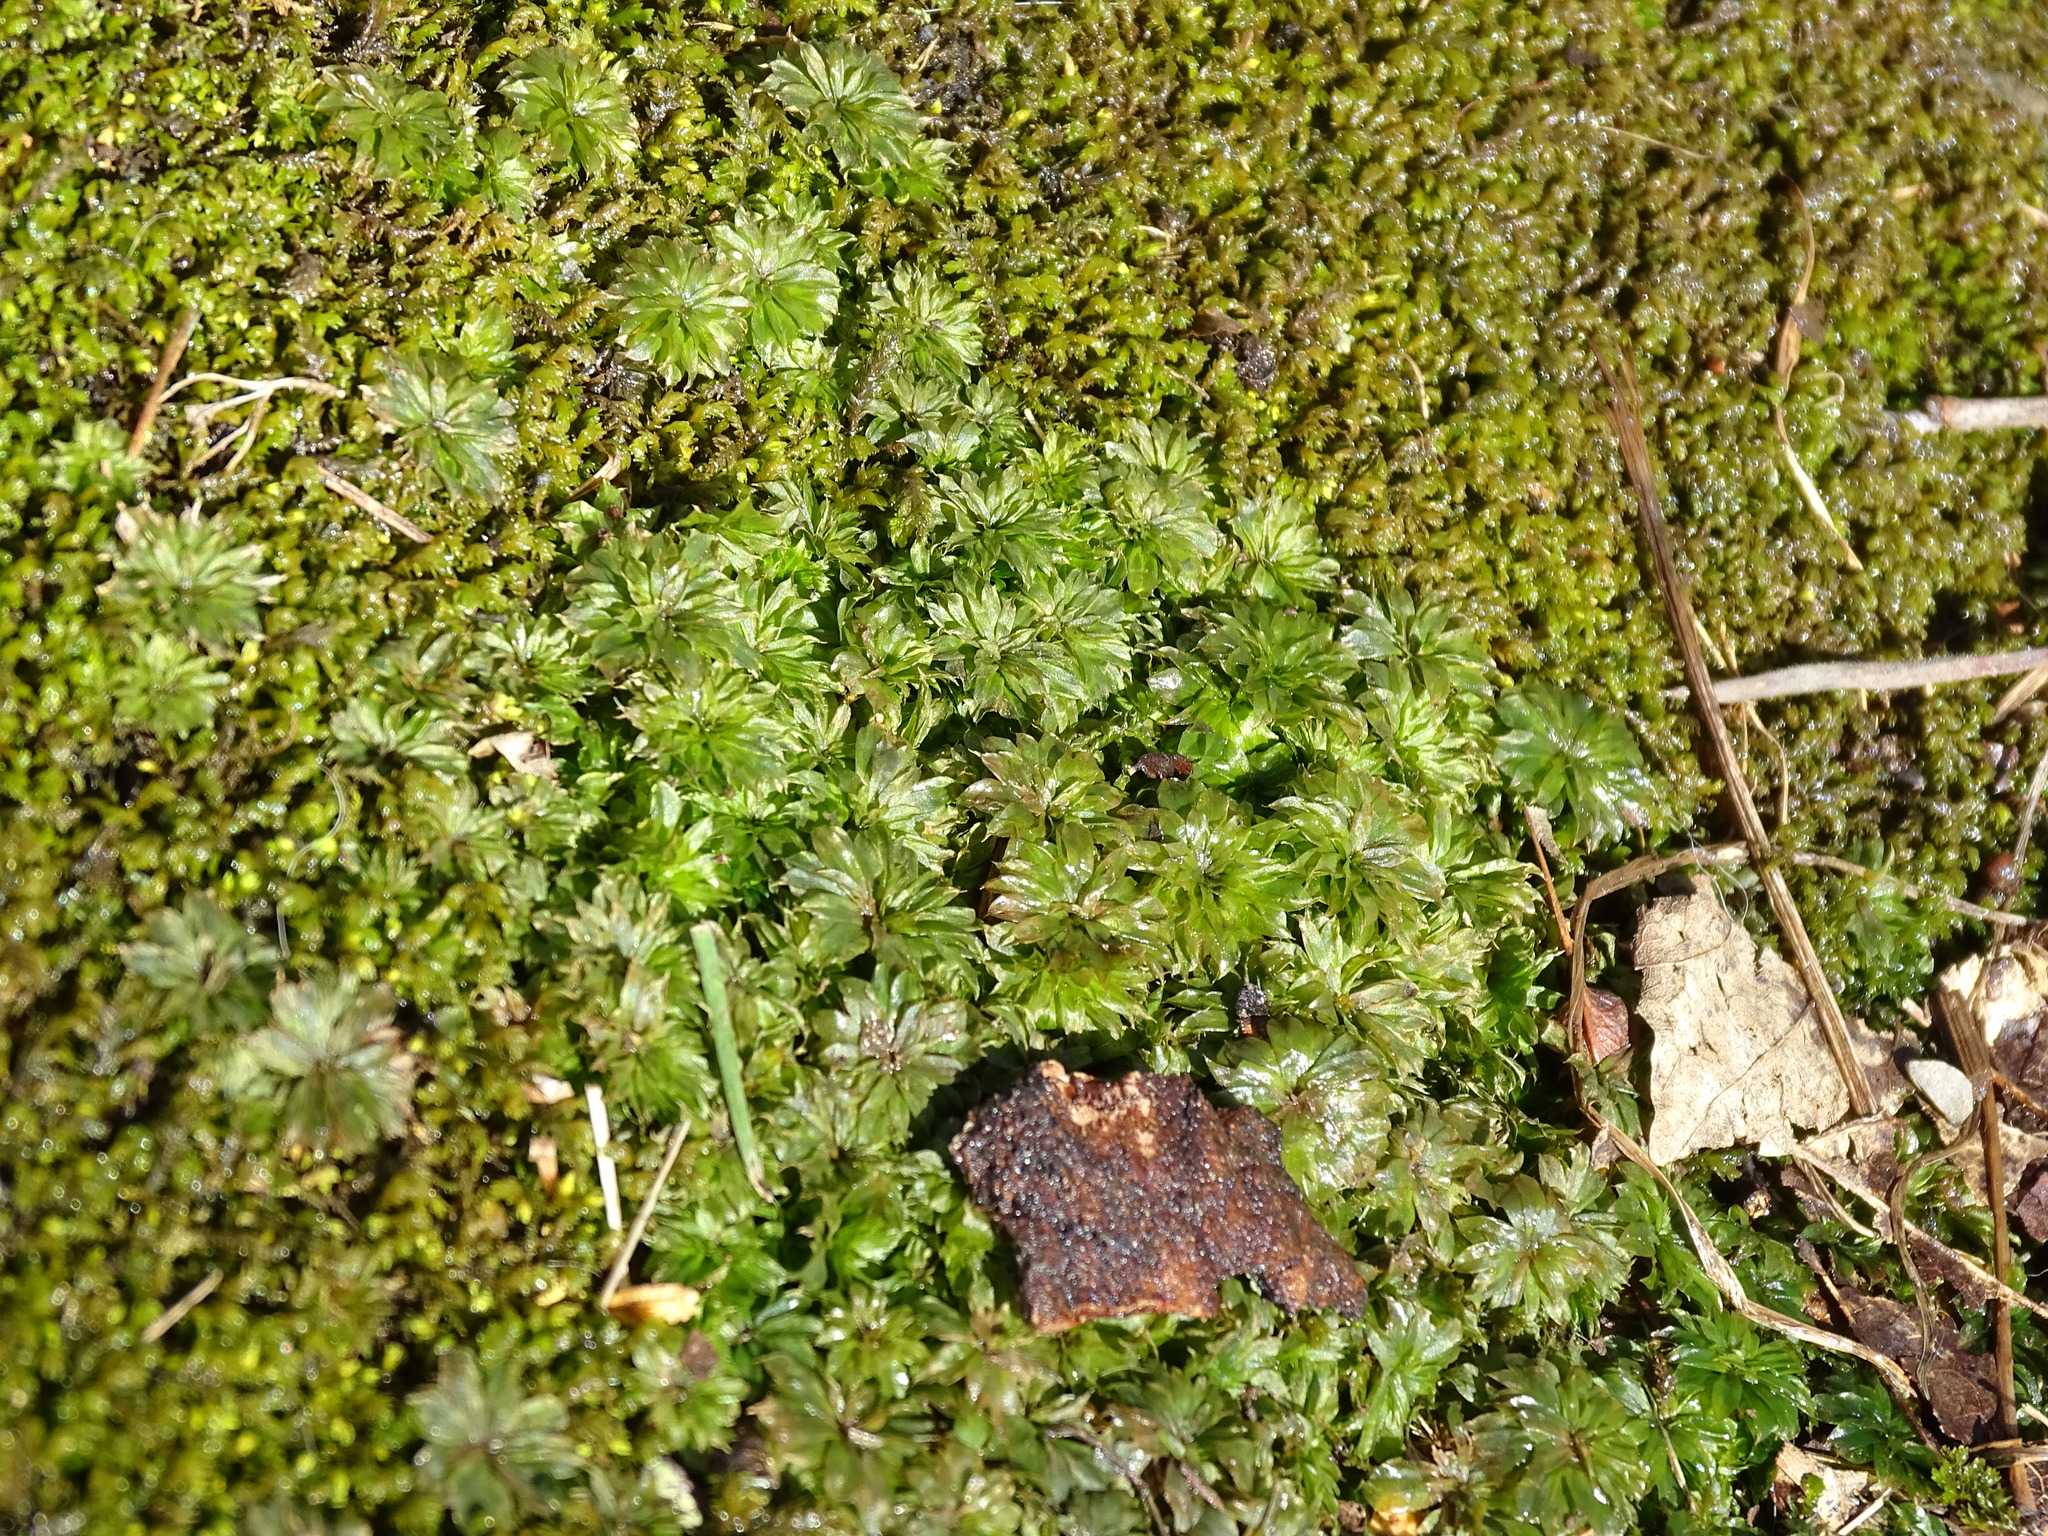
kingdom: Plantae
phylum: Bryophyta
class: Bryopsida
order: Bryales
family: Bryaceae
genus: Rhodobryum
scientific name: Rhodobryum ontariense
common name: Ontario rhodobryum moss
